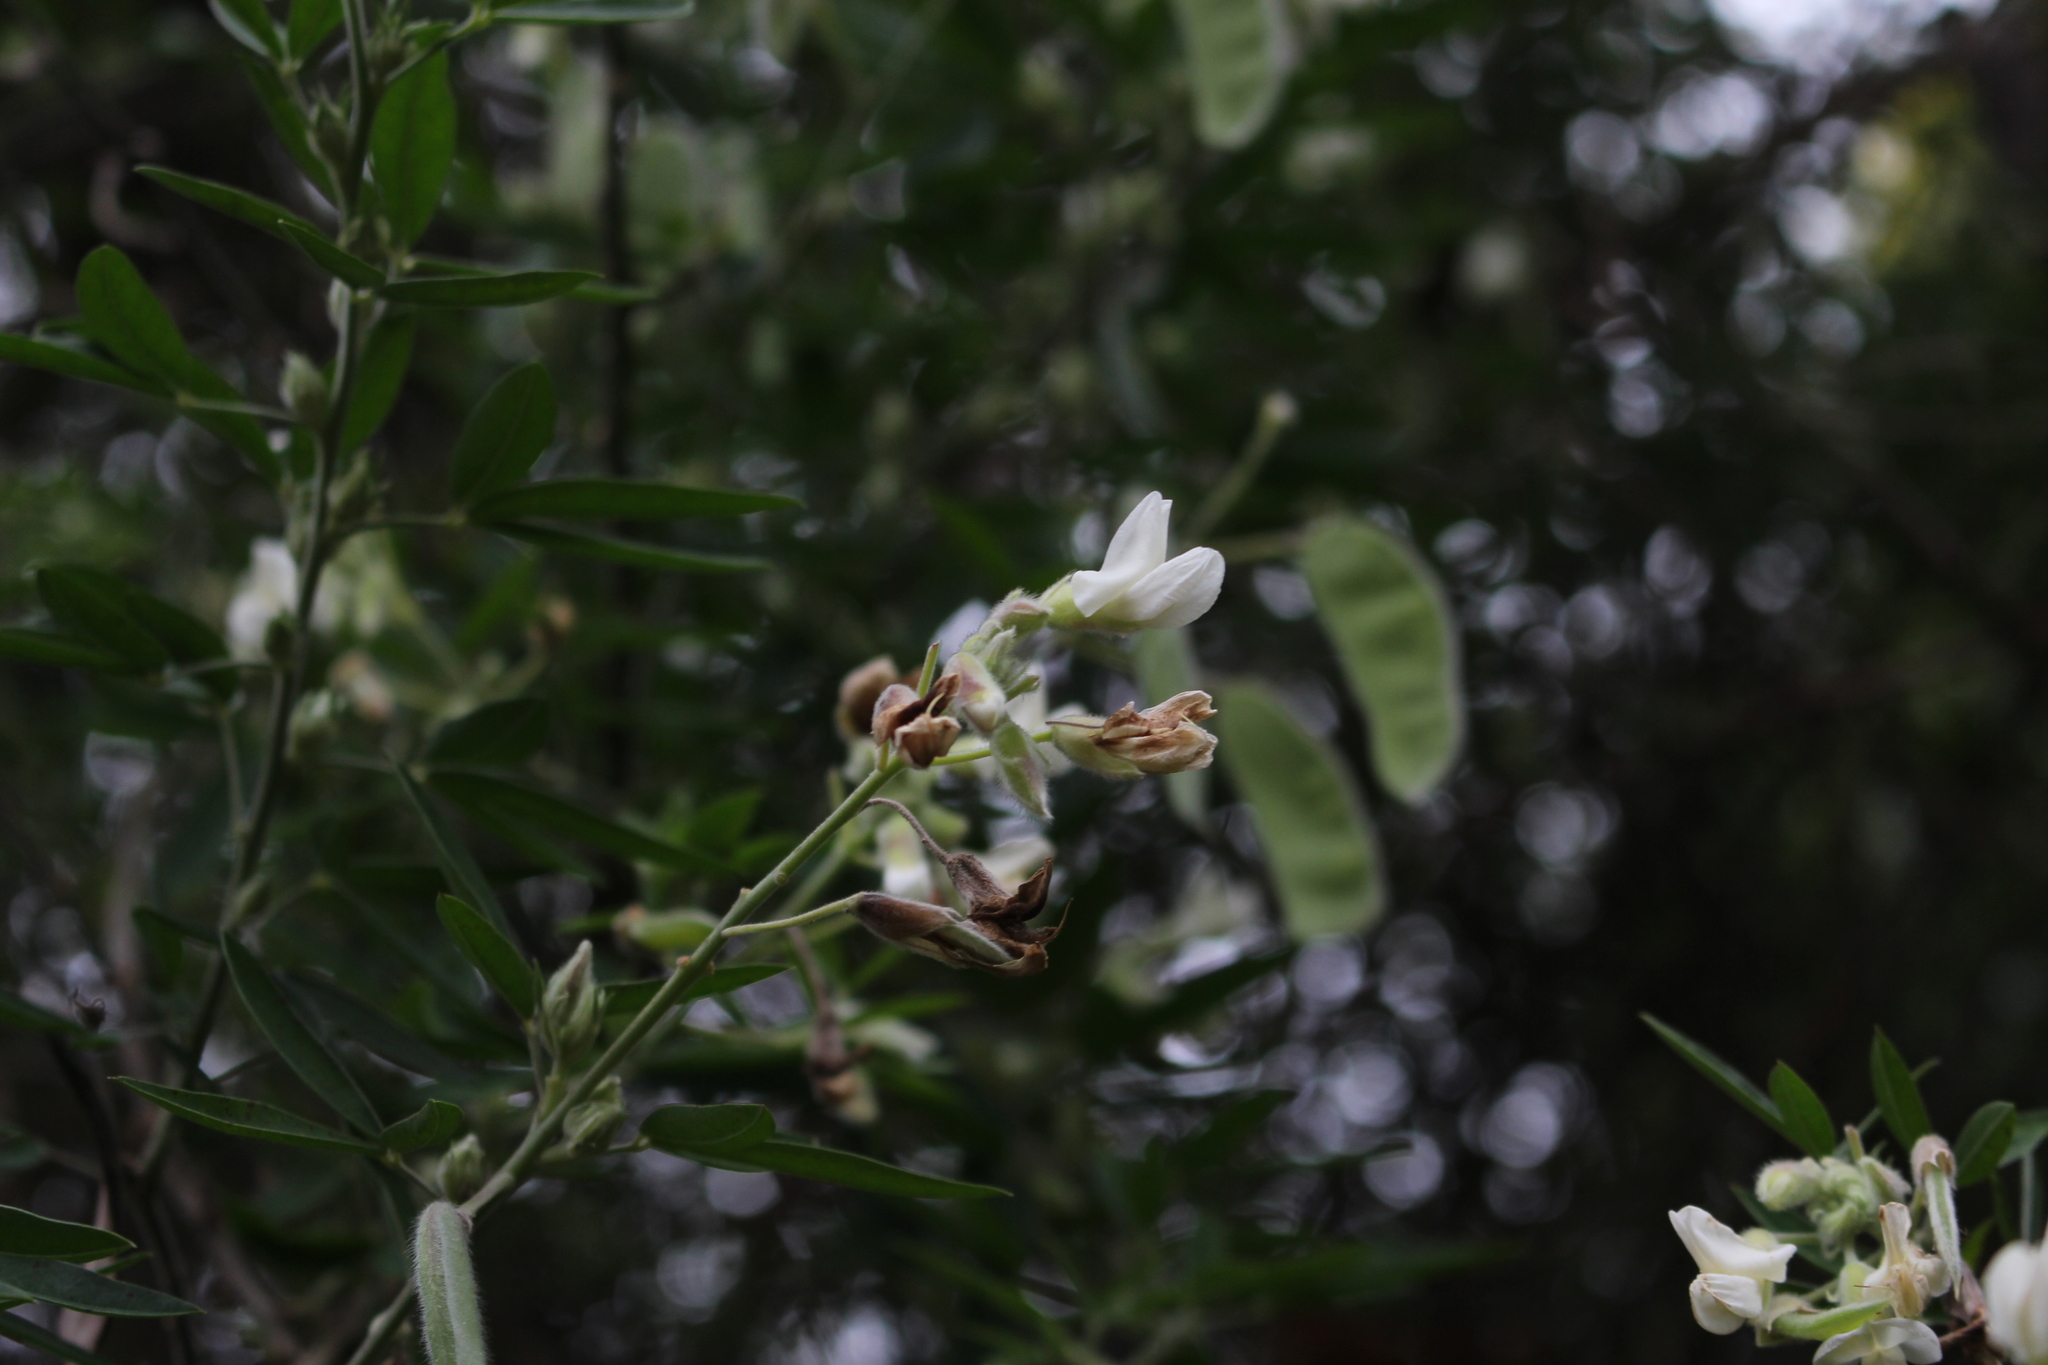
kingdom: Plantae
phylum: Tracheophyta
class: Magnoliopsida
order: Fabales
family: Fabaceae
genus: Chamaecytisus
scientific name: Chamaecytisus prolifer
